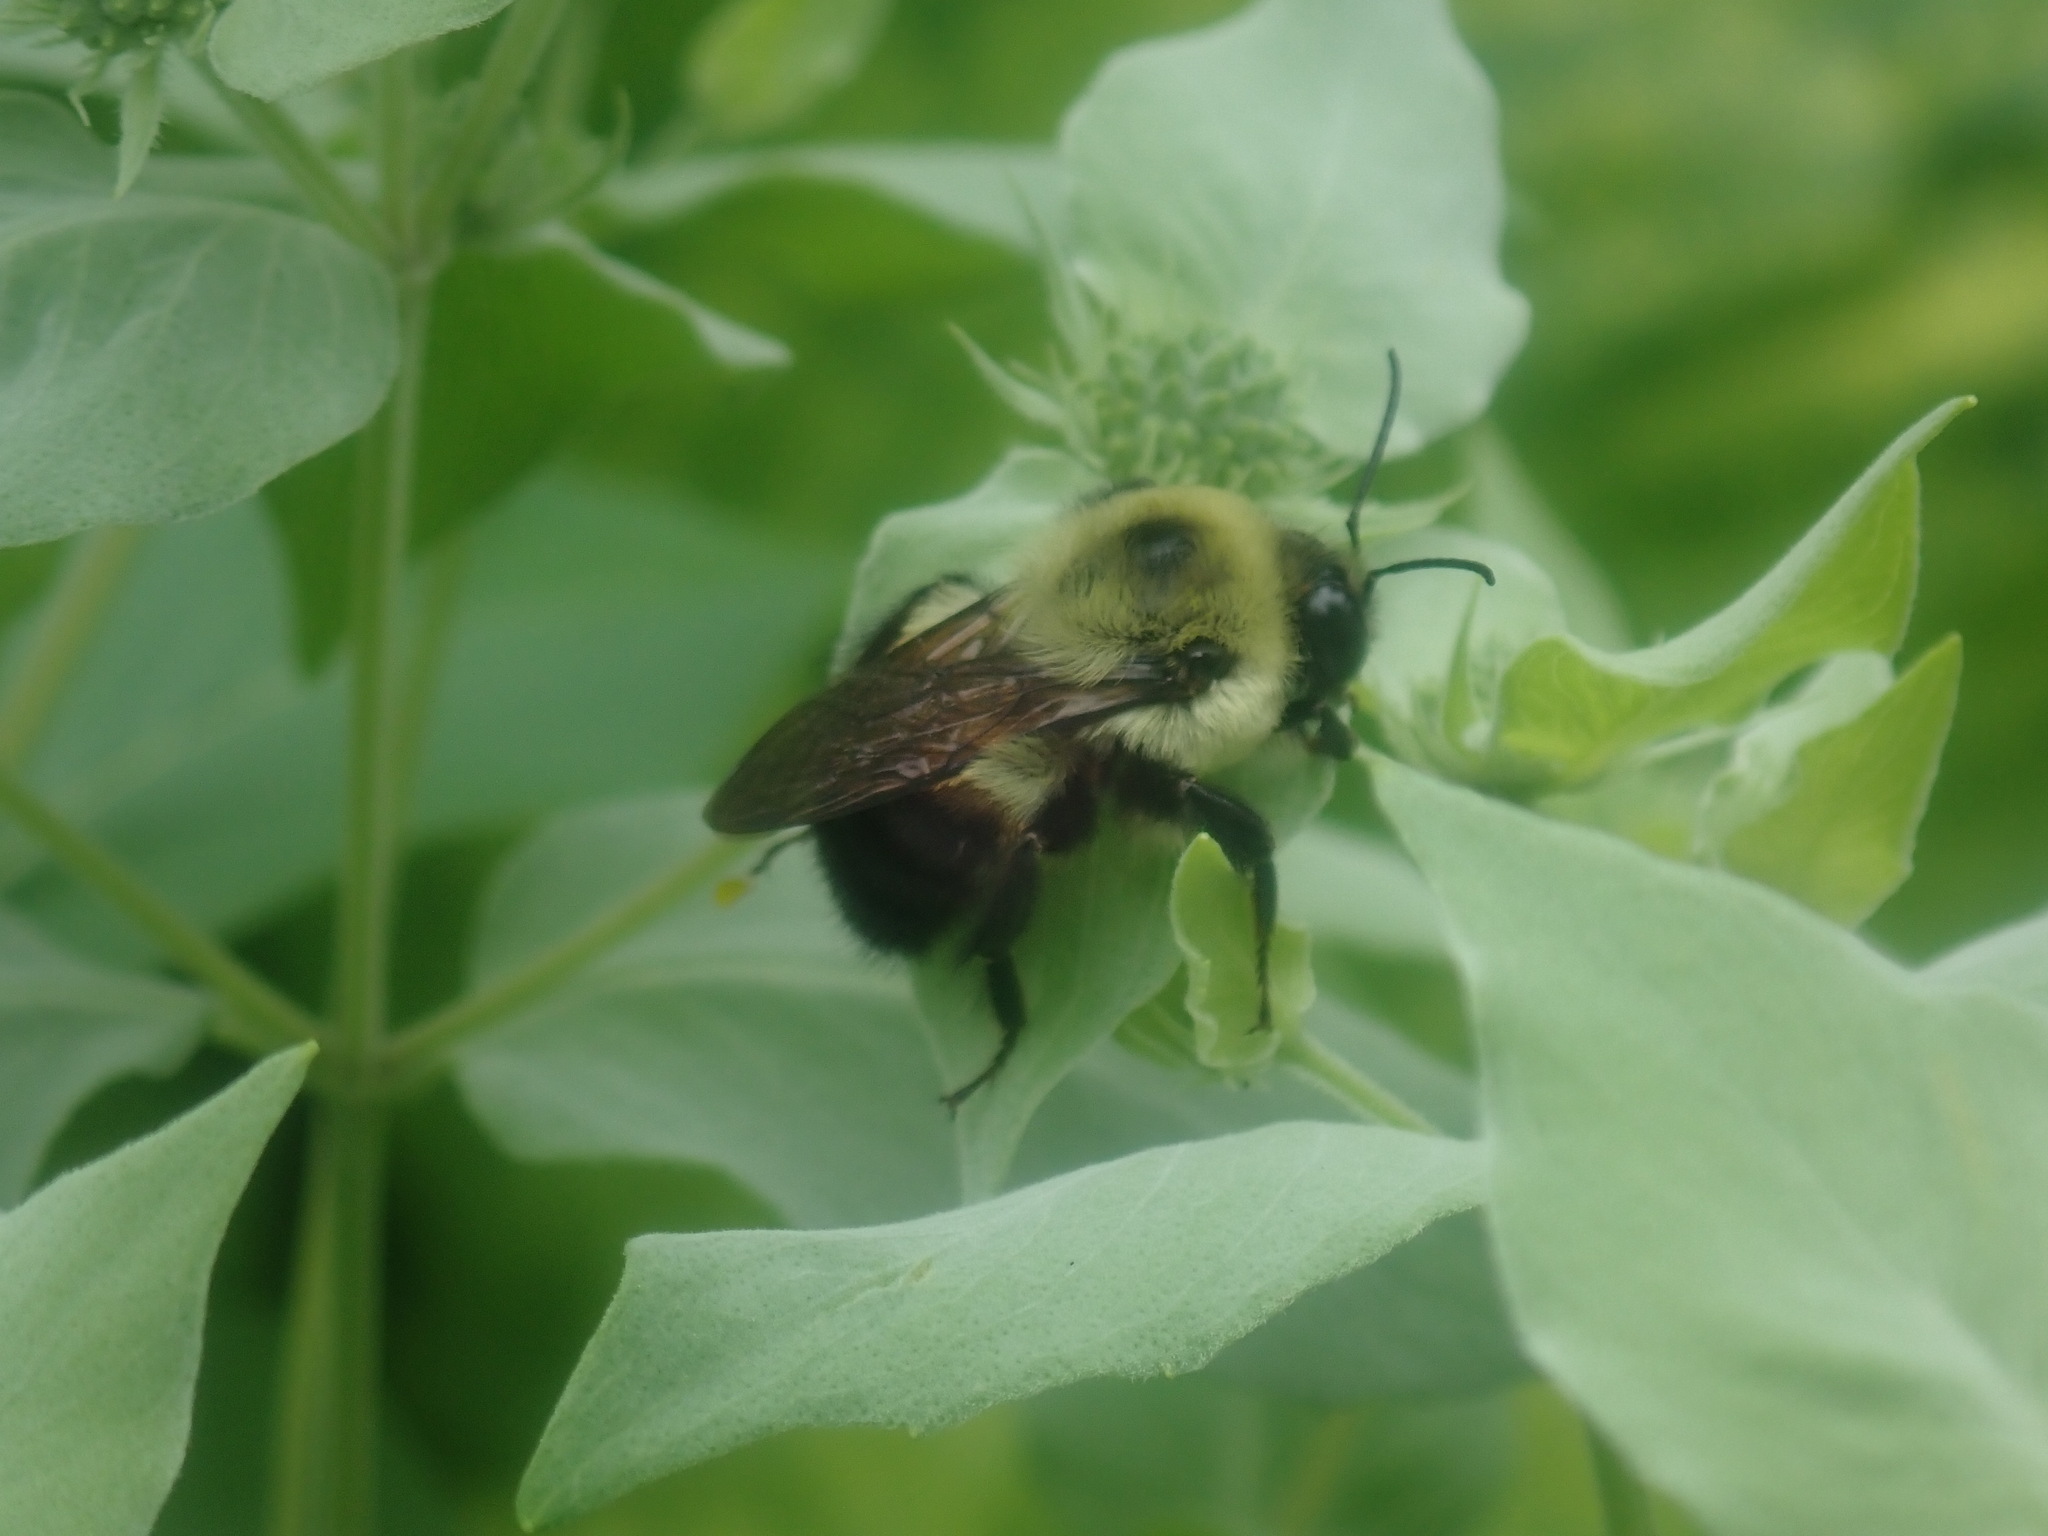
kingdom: Animalia
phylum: Arthropoda
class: Insecta
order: Hymenoptera
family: Apidae
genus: Bombus
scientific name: Bombus griseocollis
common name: Brown-belted bumble bee
